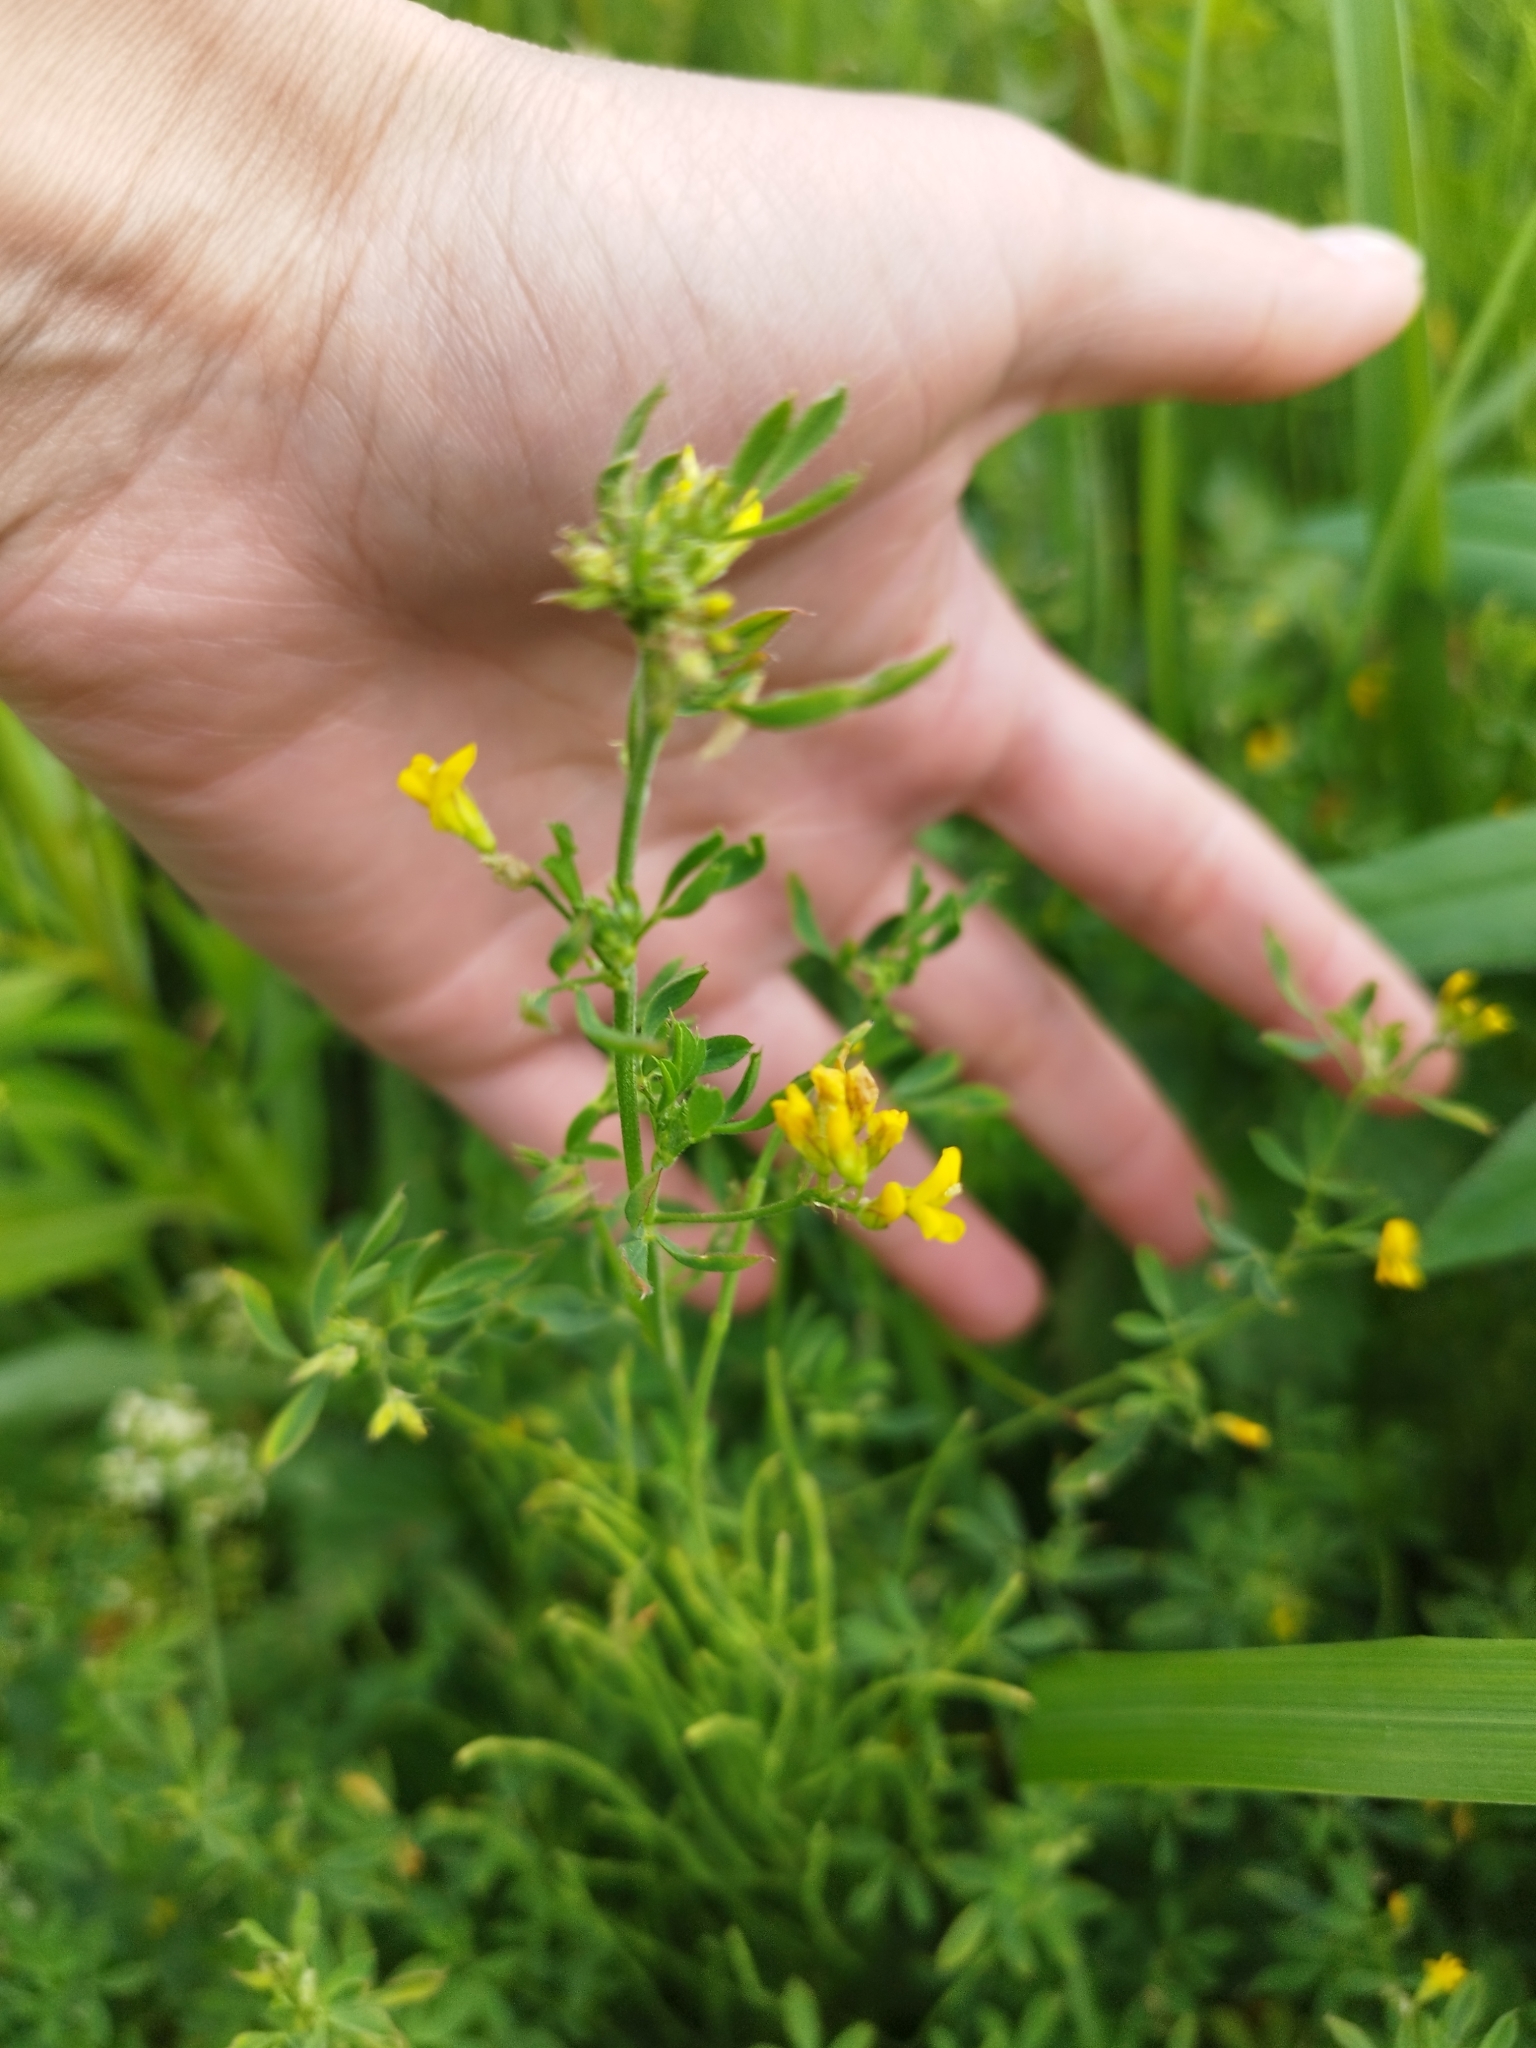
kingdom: Plantae
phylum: Tracheophyta
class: Magnoliopsida
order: Fabales
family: Fabaceae
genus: Medicago
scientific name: Medicago falcata
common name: Sickle medick
